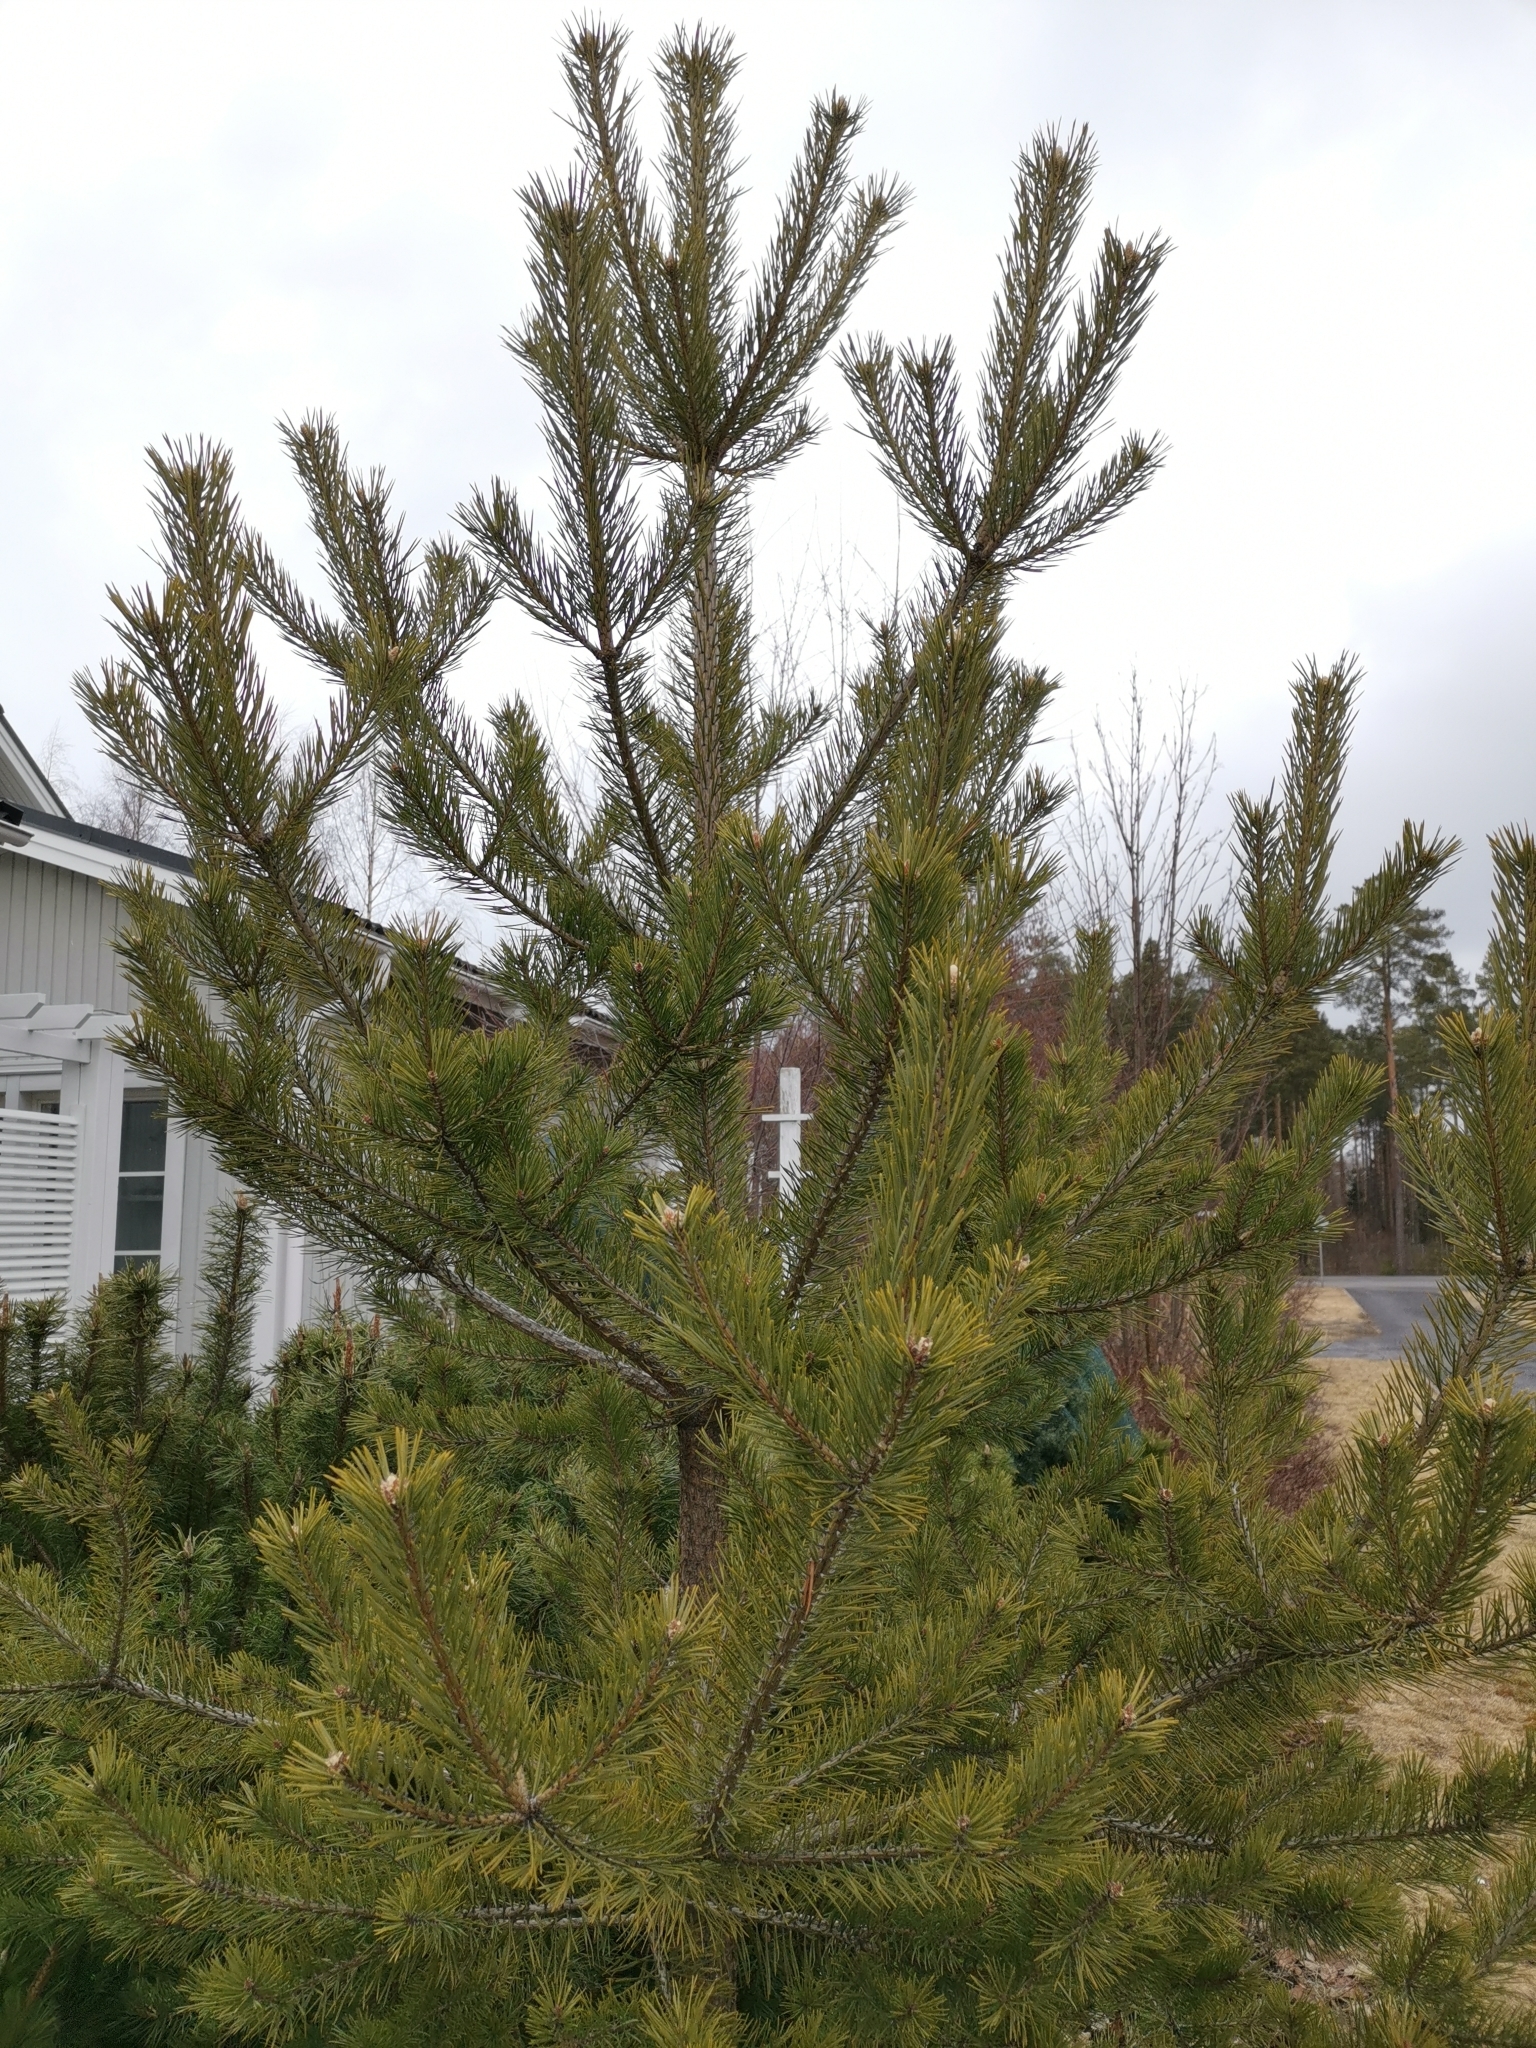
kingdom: Plantae
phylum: Tracheophyta
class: Pinopsida
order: Pinales
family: Pinaceae
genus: Pinus
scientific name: Pinus sylvestris
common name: Scots pine
